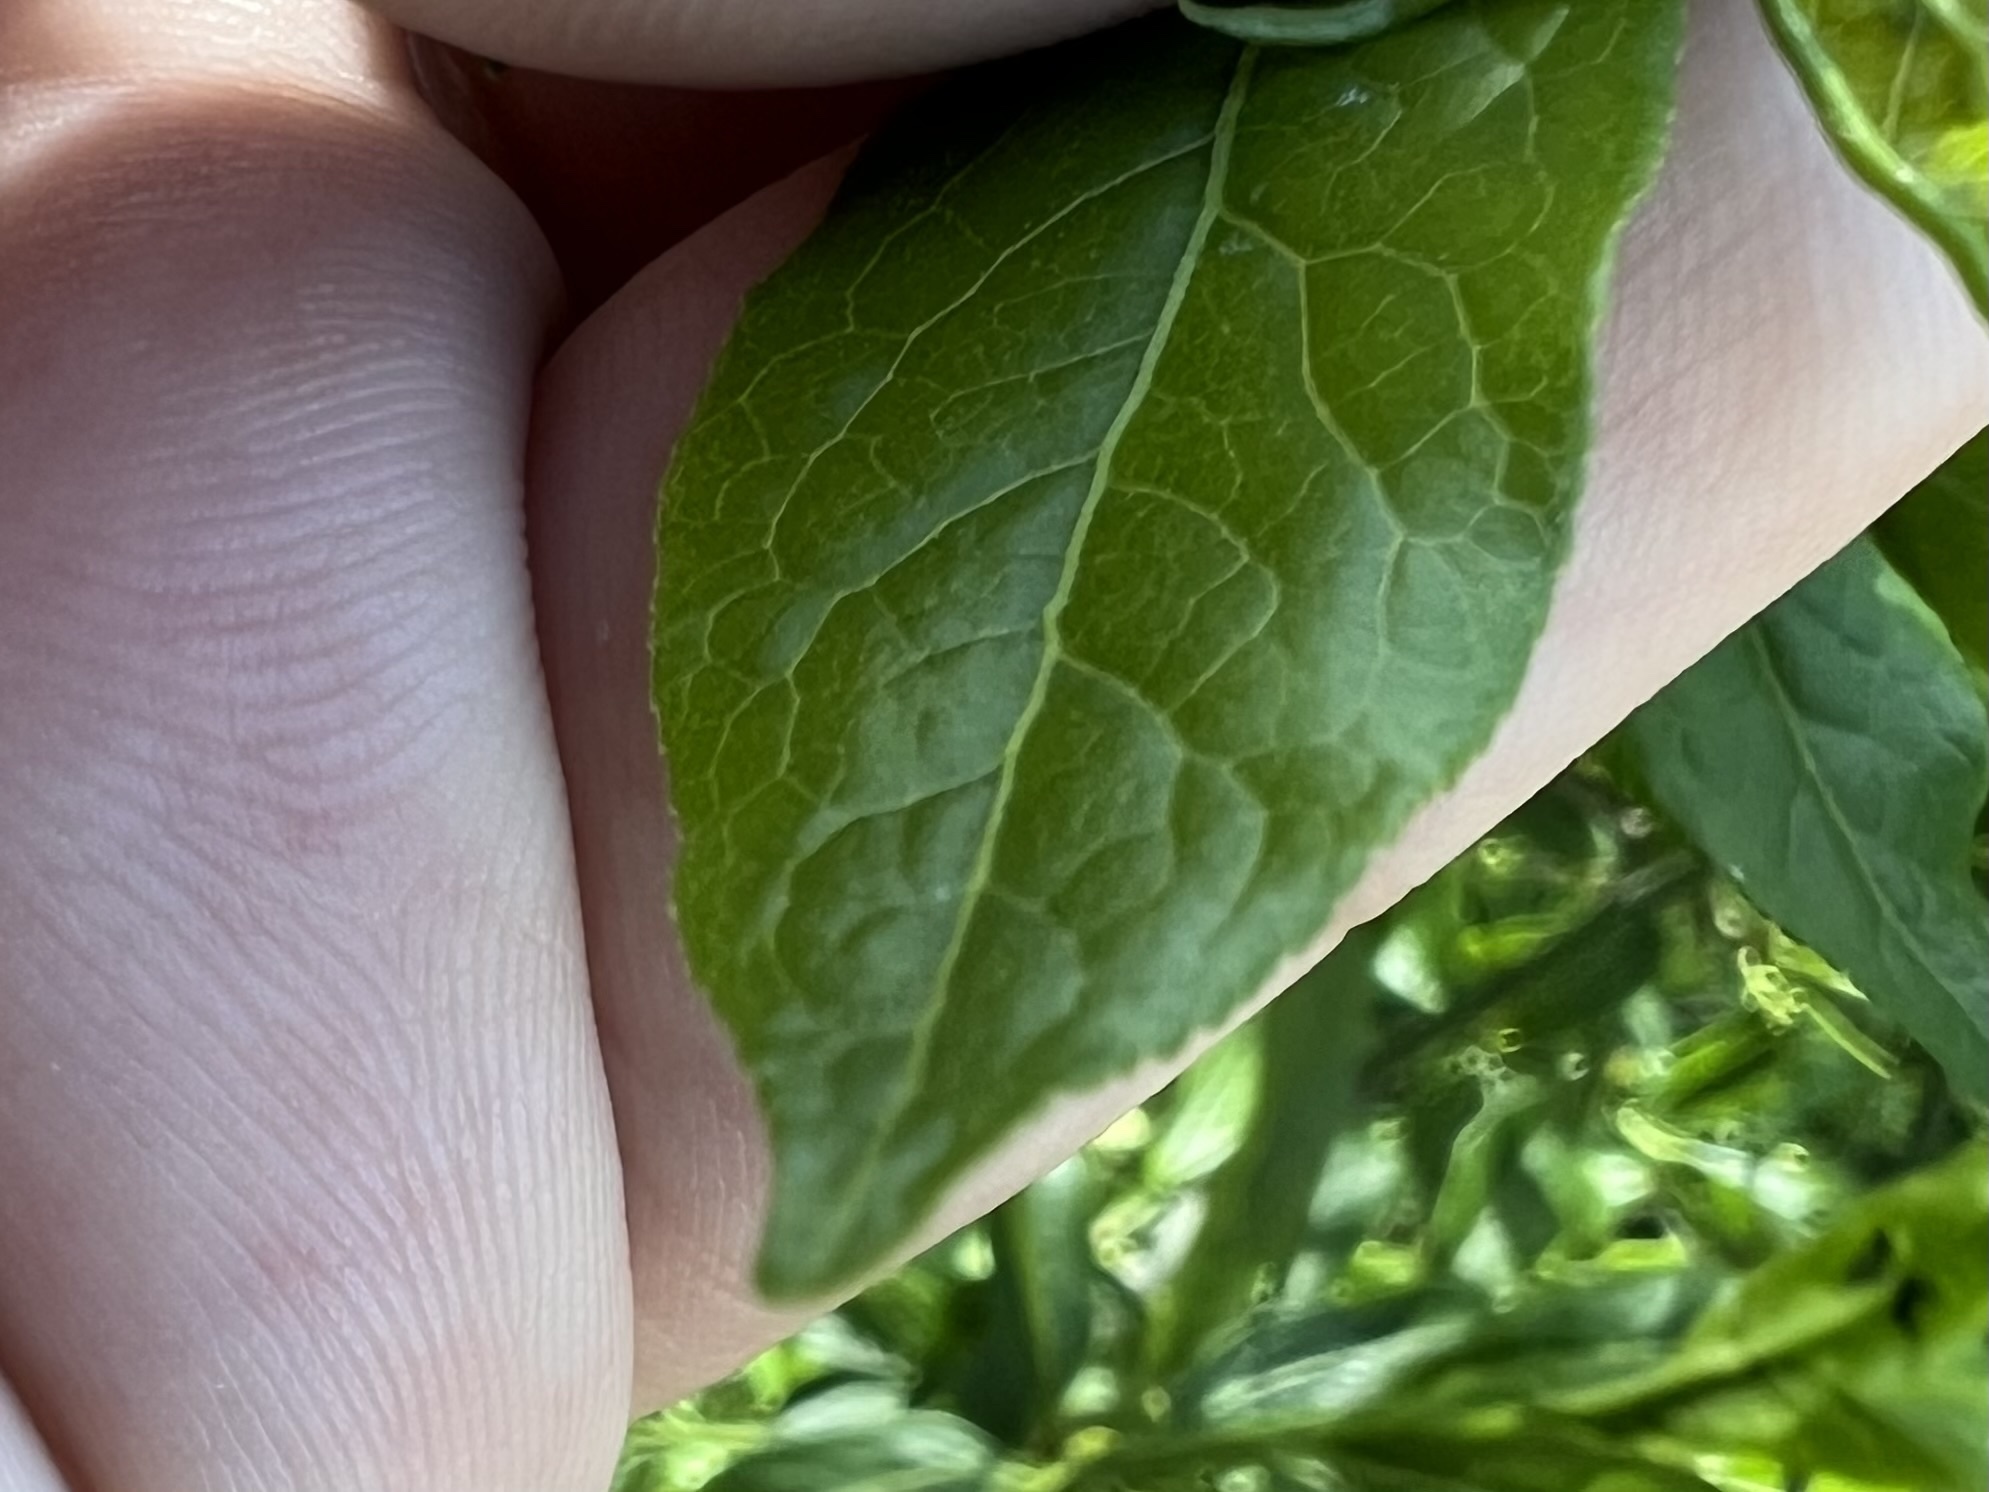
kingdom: Plantae
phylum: Tracheophyta
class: Magnoliopsida
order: Celastrales
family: Celastraceae
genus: Euonymus
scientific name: Euonymus europaeus
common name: Spindle
